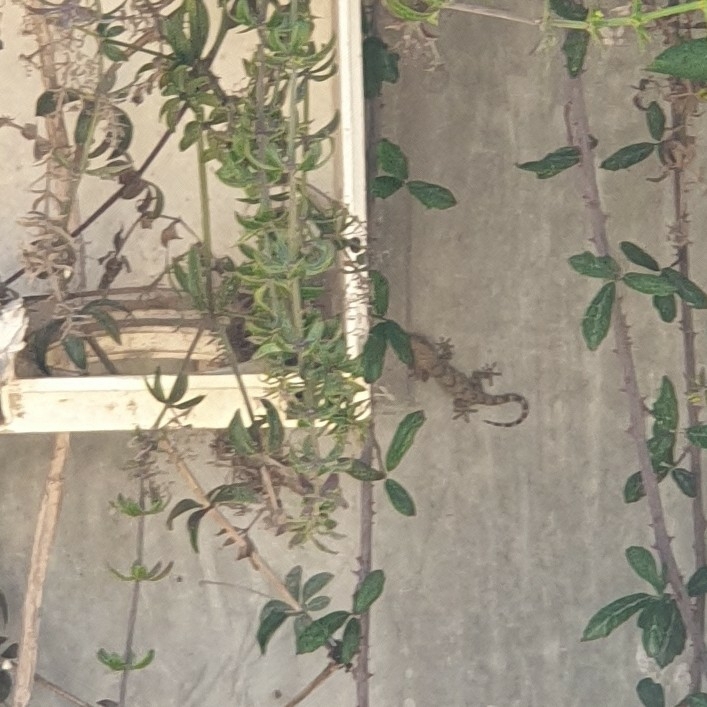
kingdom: Animalia
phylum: Chordata
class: Squamata
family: Phyllodactylidae
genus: Tarentola
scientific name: Tarentola mauritanica
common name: Moorish gecko
